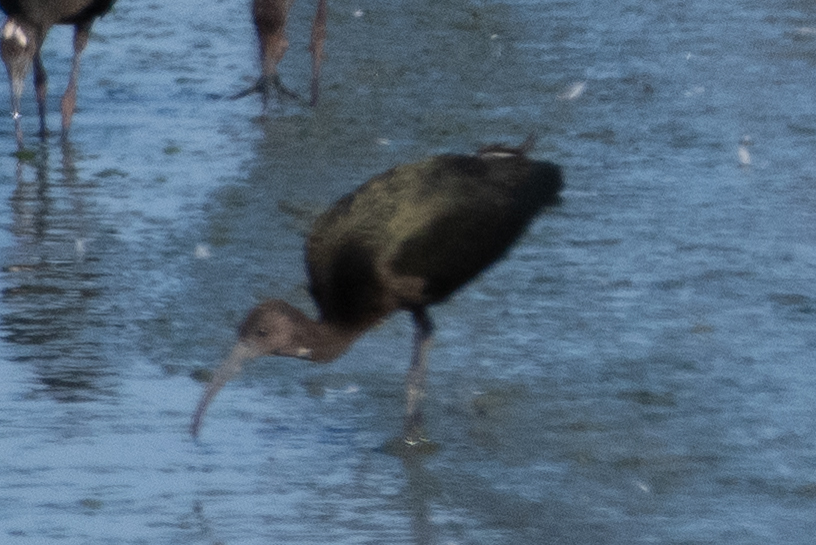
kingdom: Animalia
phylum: Chordata
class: Aves
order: Pelecaniformes
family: Threskiornithidae
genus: Plegadis
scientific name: Plegadis chihi
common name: White-faced ibis
